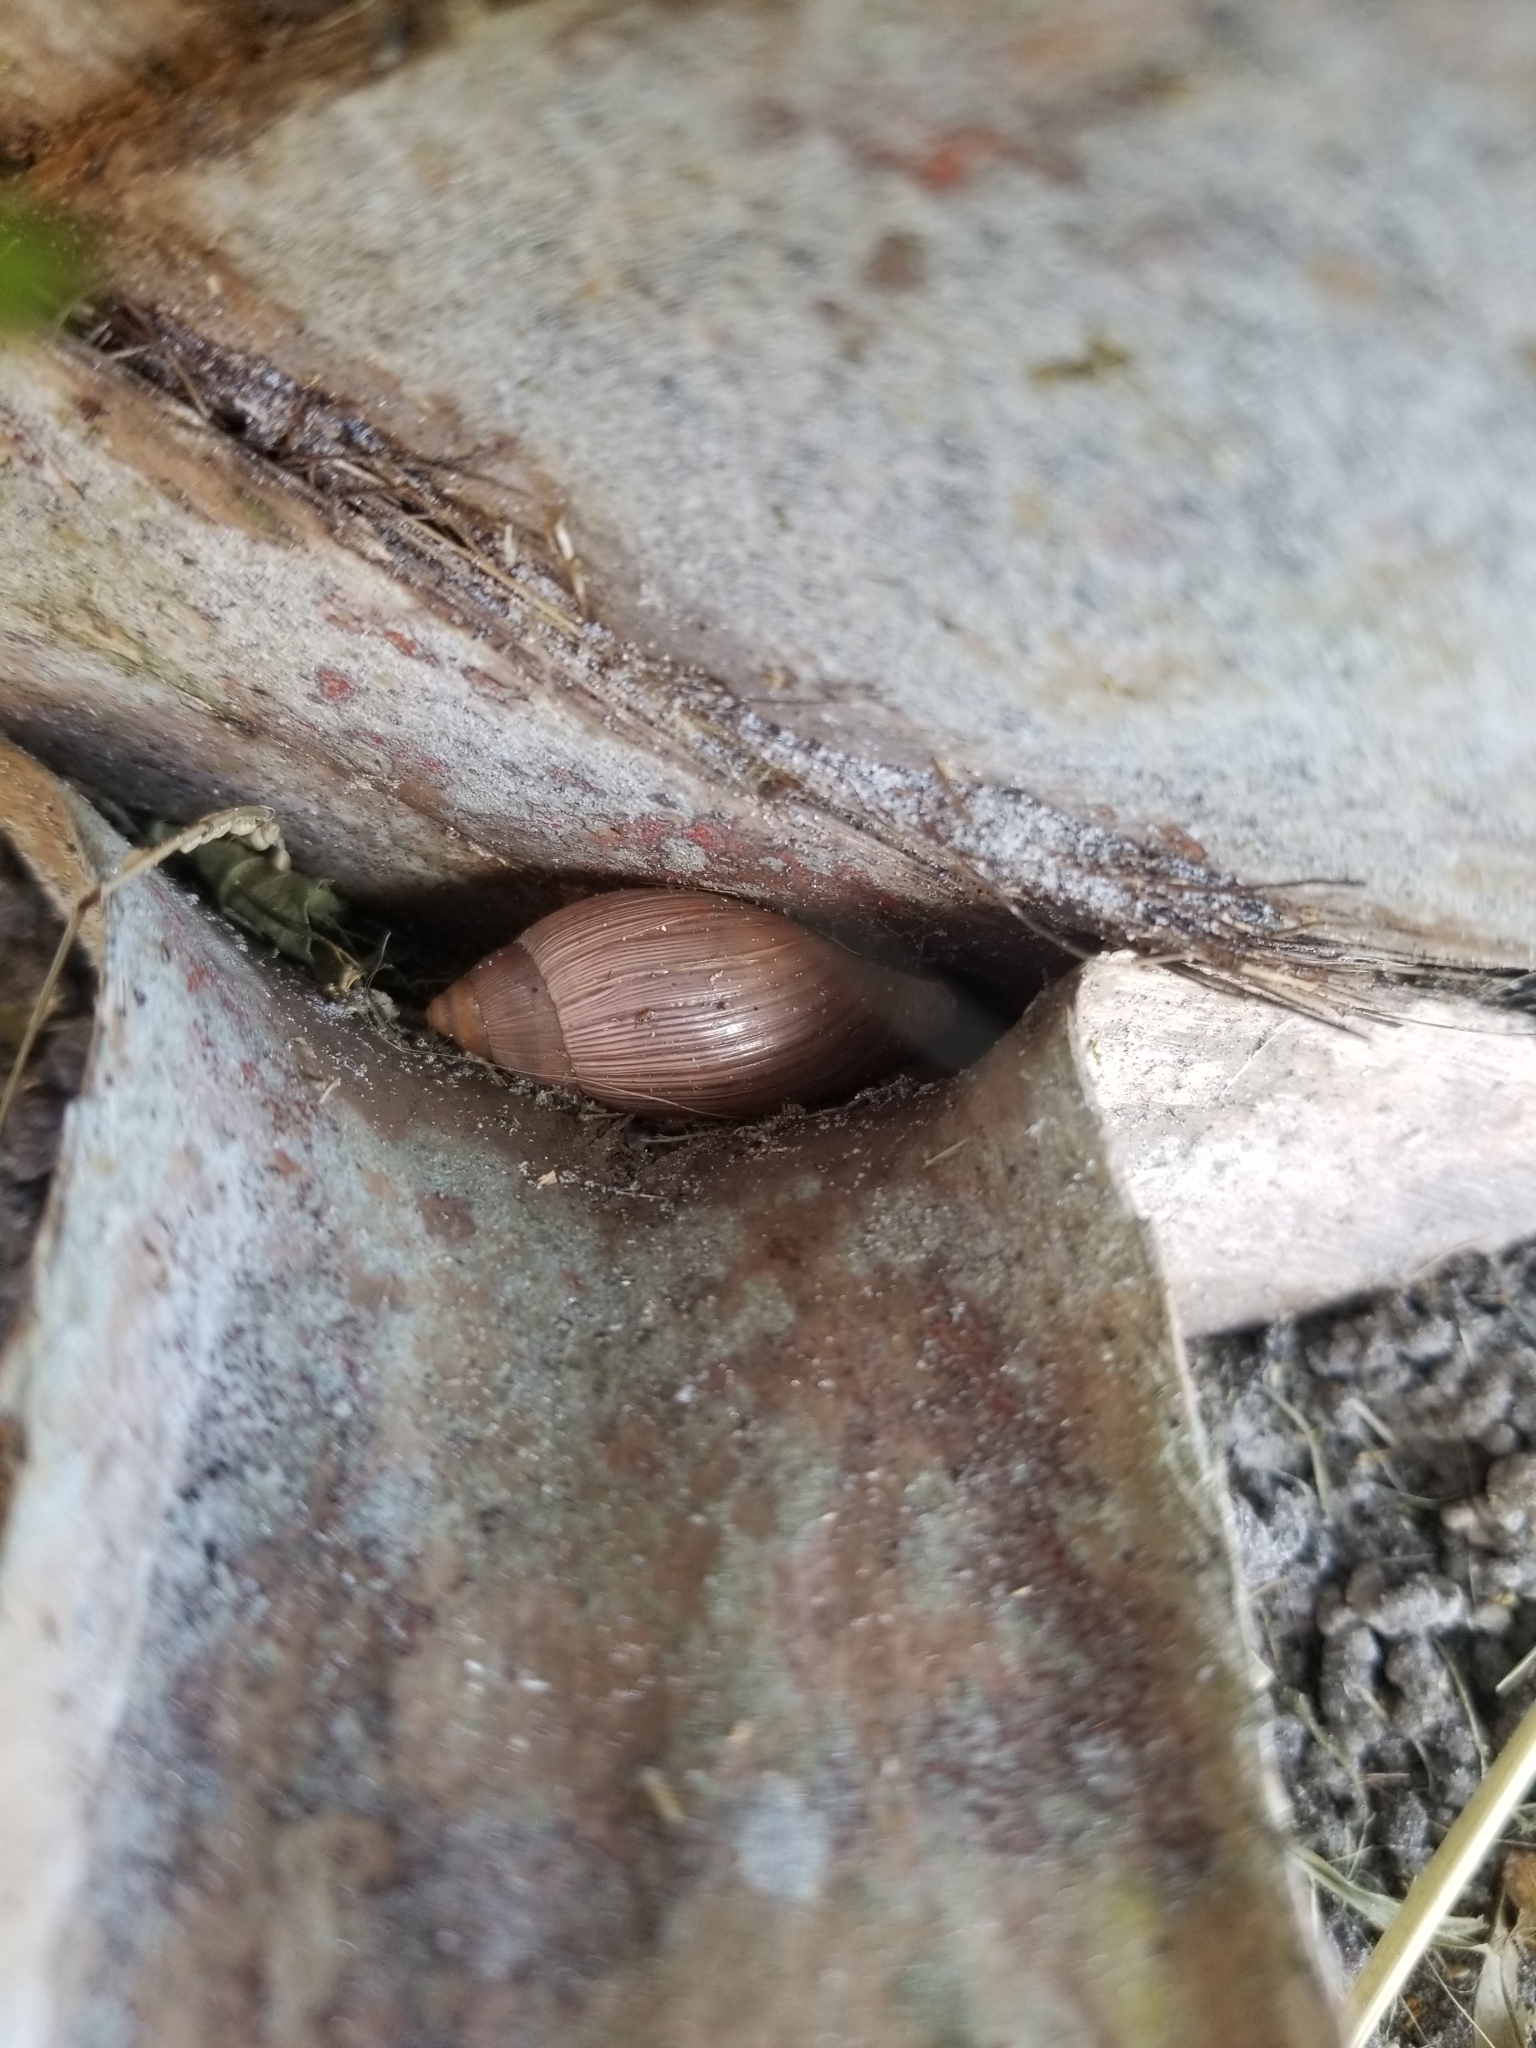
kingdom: Animalia
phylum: Mollusca
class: Gastropoda
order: Stylommatophora
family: Spiraxidae
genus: Euglandina
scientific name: Euglandina rosea
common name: Rosy wolfsnail
